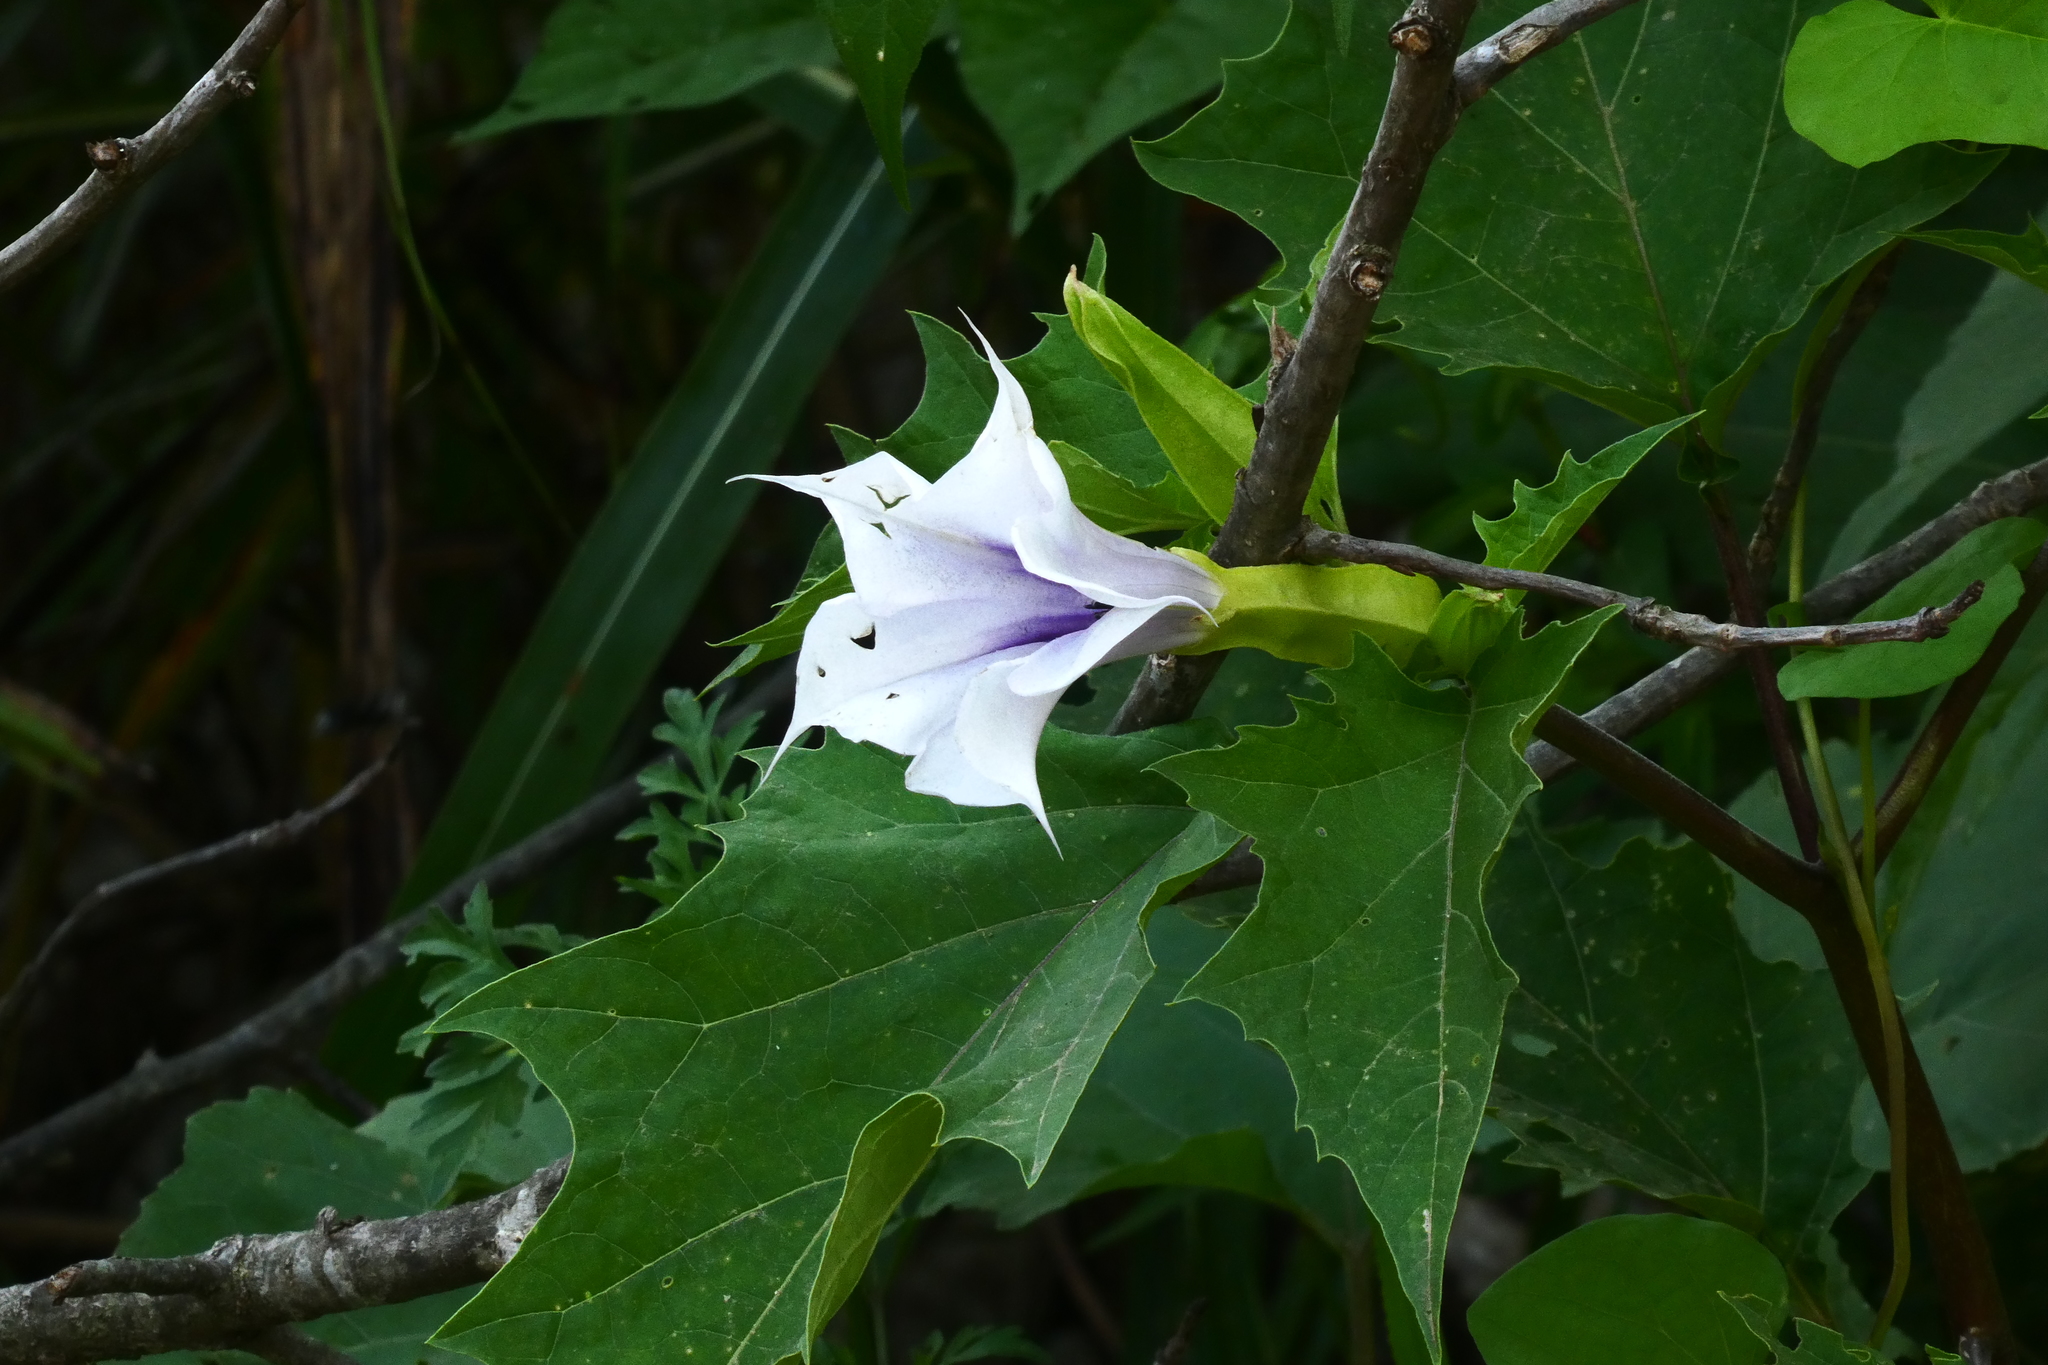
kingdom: Plantae
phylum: Tracheophyta
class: Magnoliopsida
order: Solanales
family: Solanaceae
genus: Datura
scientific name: Datura stramonium
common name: Thorn-apple
